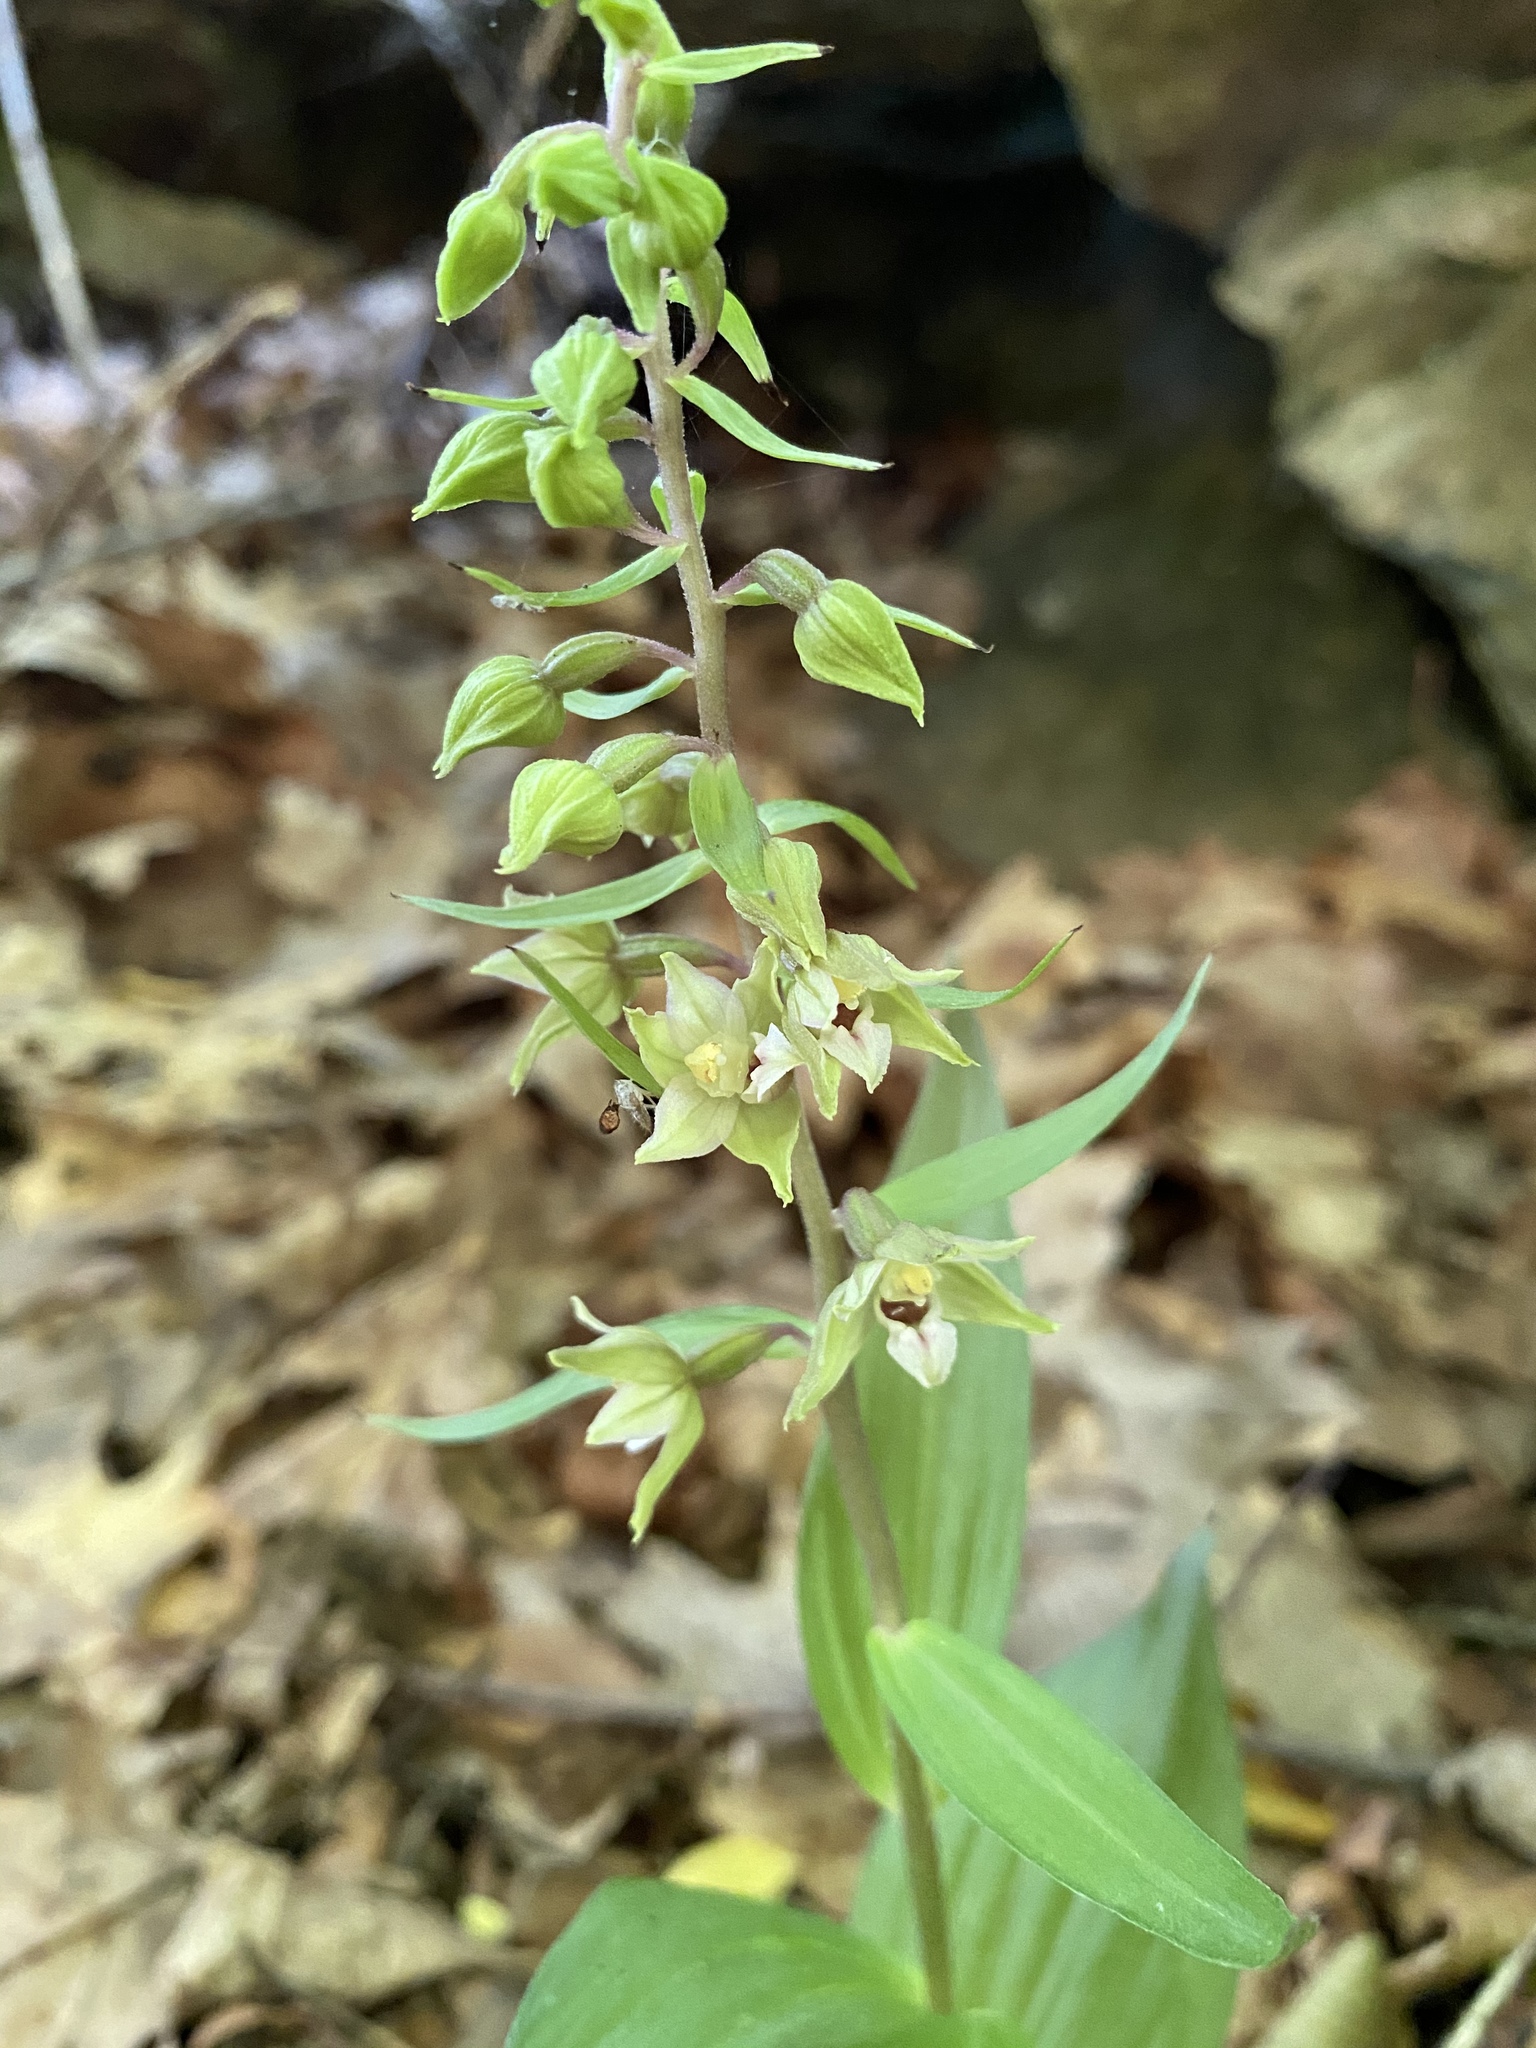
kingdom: Plantae
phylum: Tracheophyta
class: Liliopsida
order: Asparagales
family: Orchidaceae
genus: Epipactis
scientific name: Epipactis helleborine
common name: Broad-leaved helleborine
